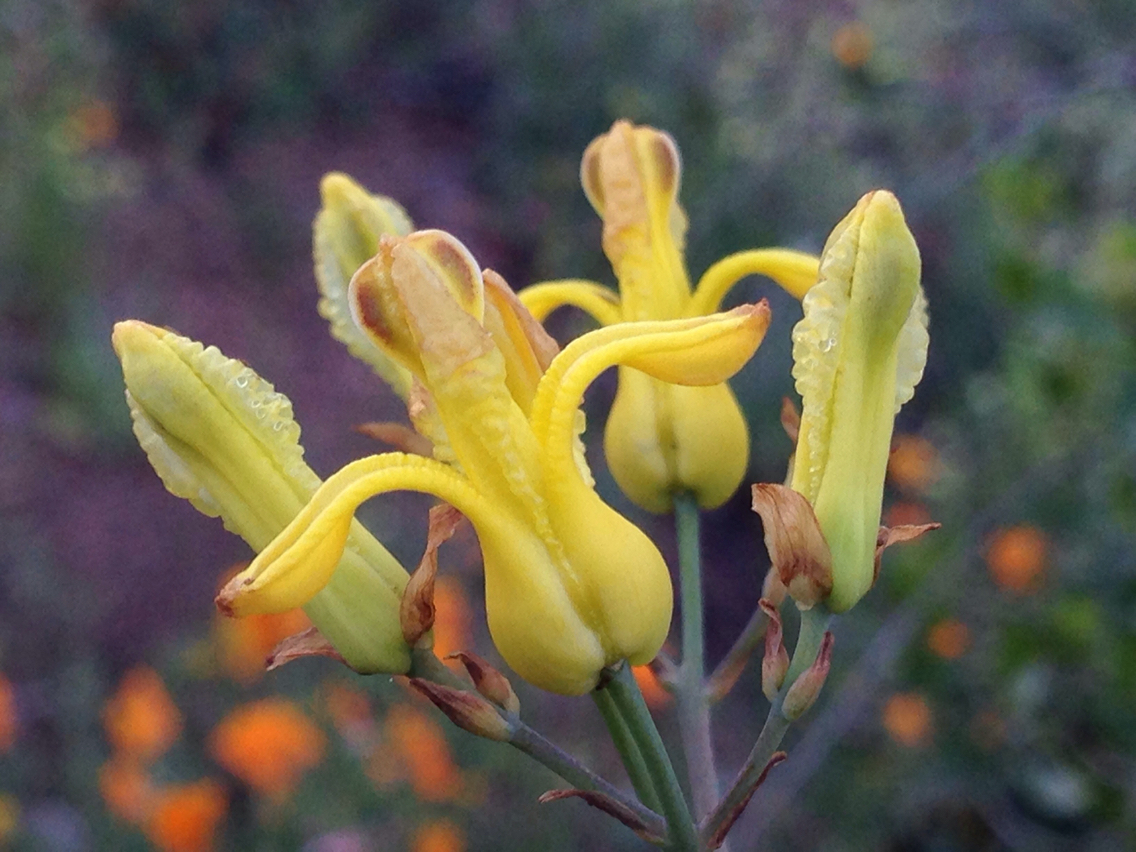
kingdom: Plantae
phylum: Tracheophyta
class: Magnoliopsida
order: Ranunculales
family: Papaveraceae
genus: Ehrendorferia
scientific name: Ehrendorferia chrysantha
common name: Golden eardrops
